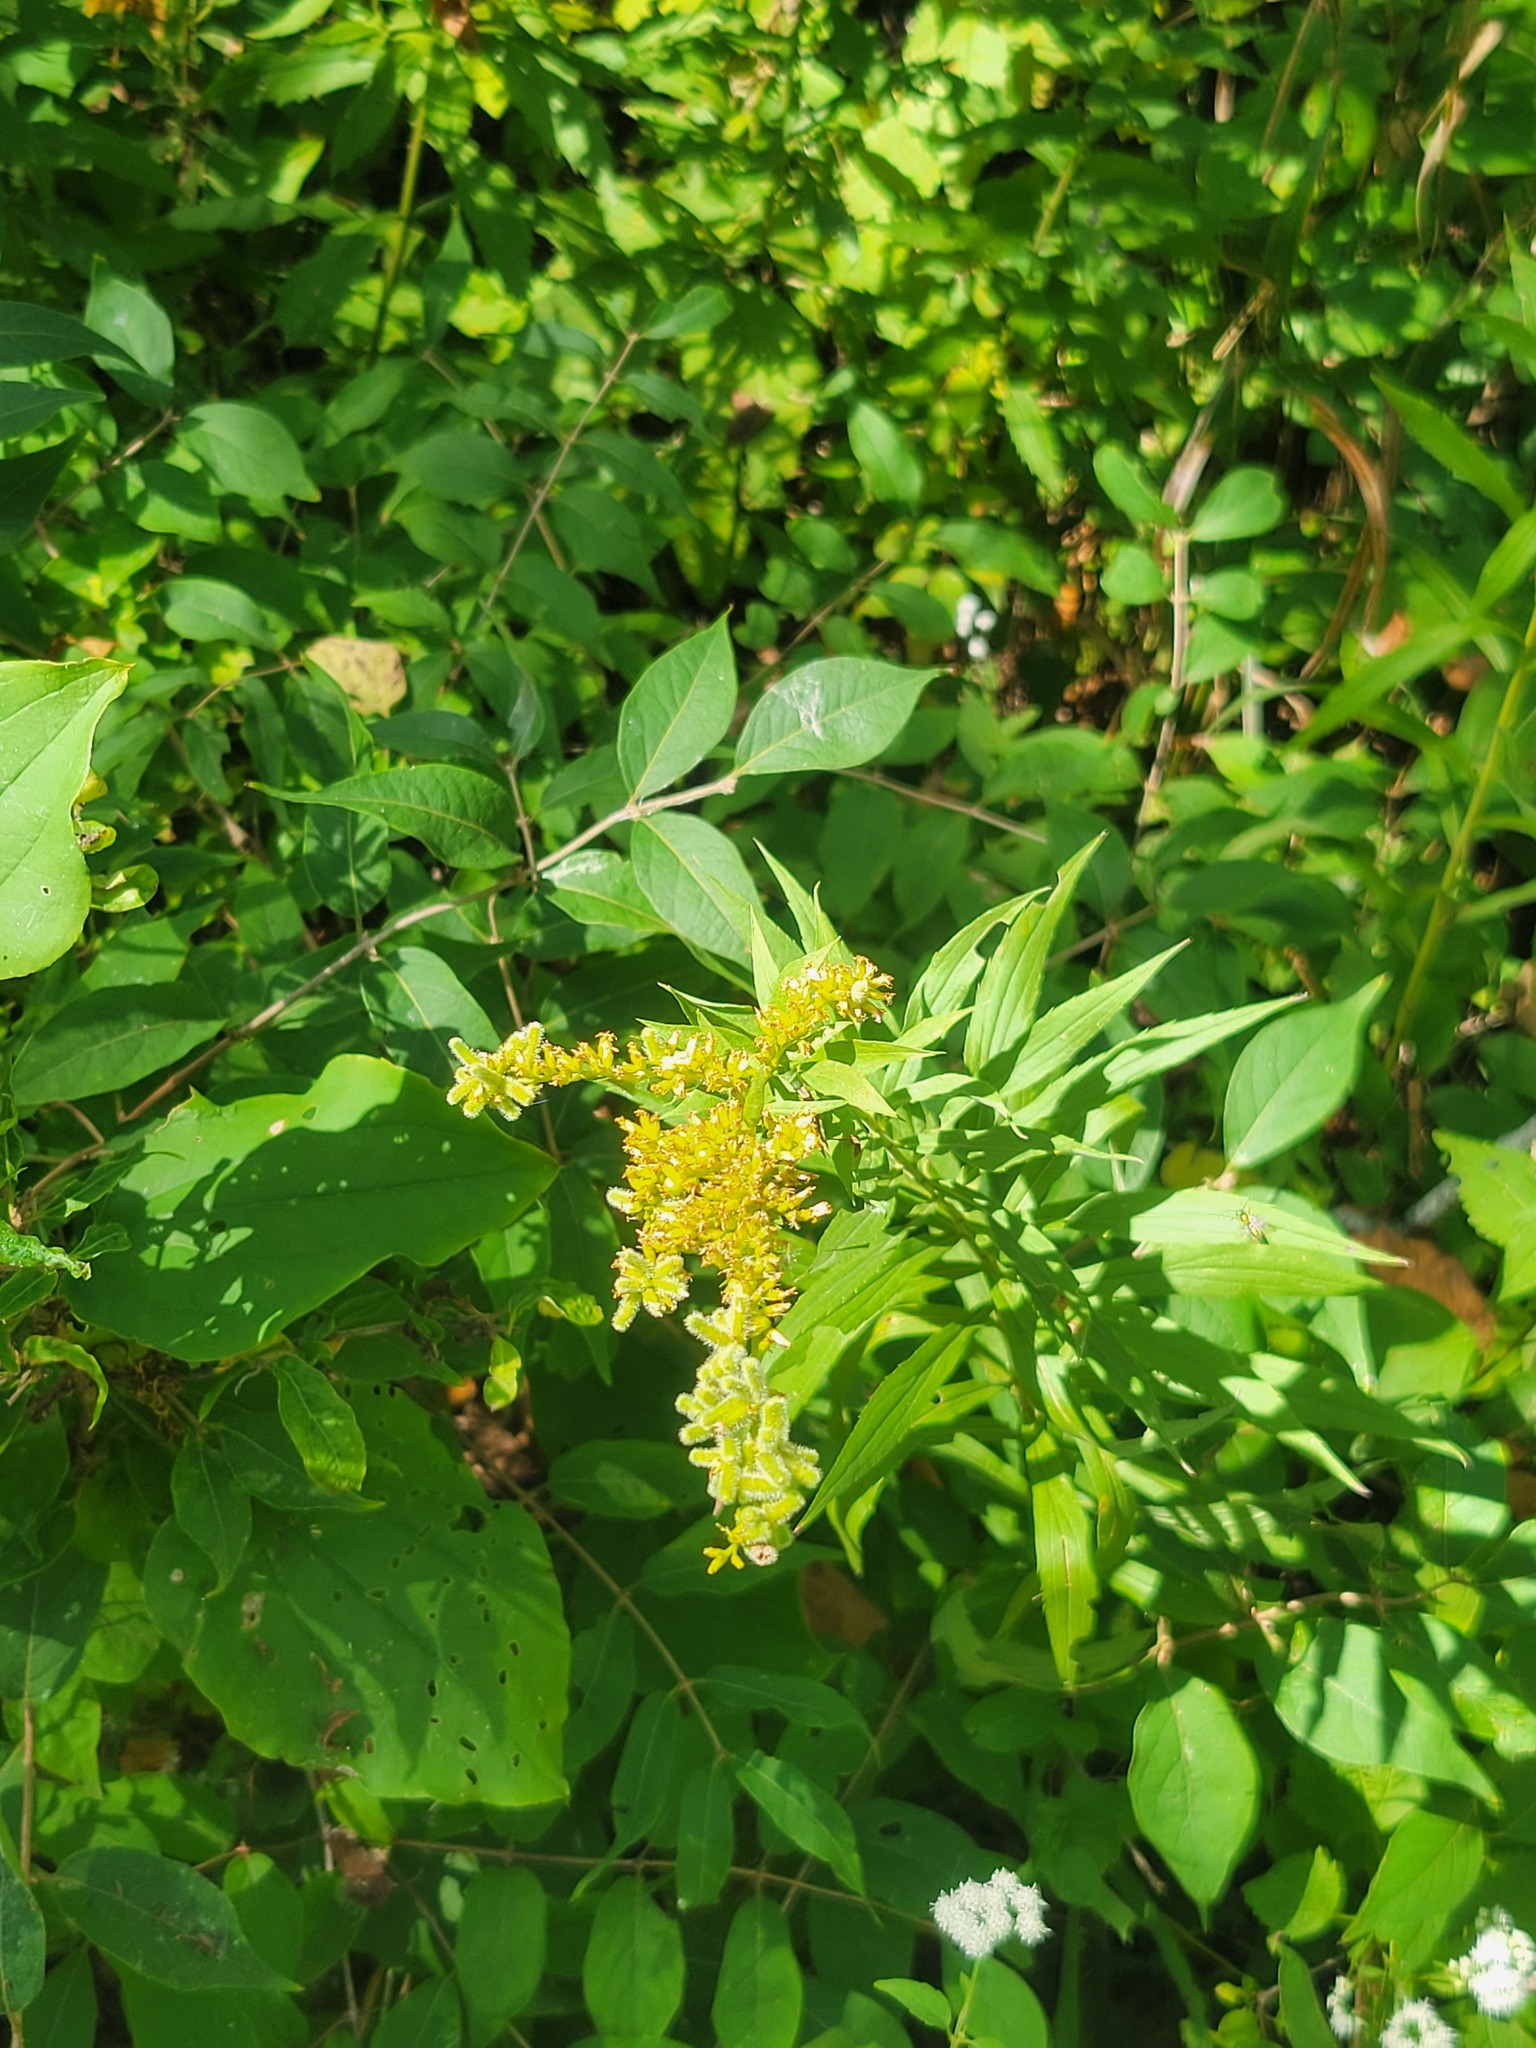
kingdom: Animalia
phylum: Arthropoda
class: Insecta
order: Diptera
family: Cecidomyiidae
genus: Rhopalomyia
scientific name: Rhopalomyia anthophila
